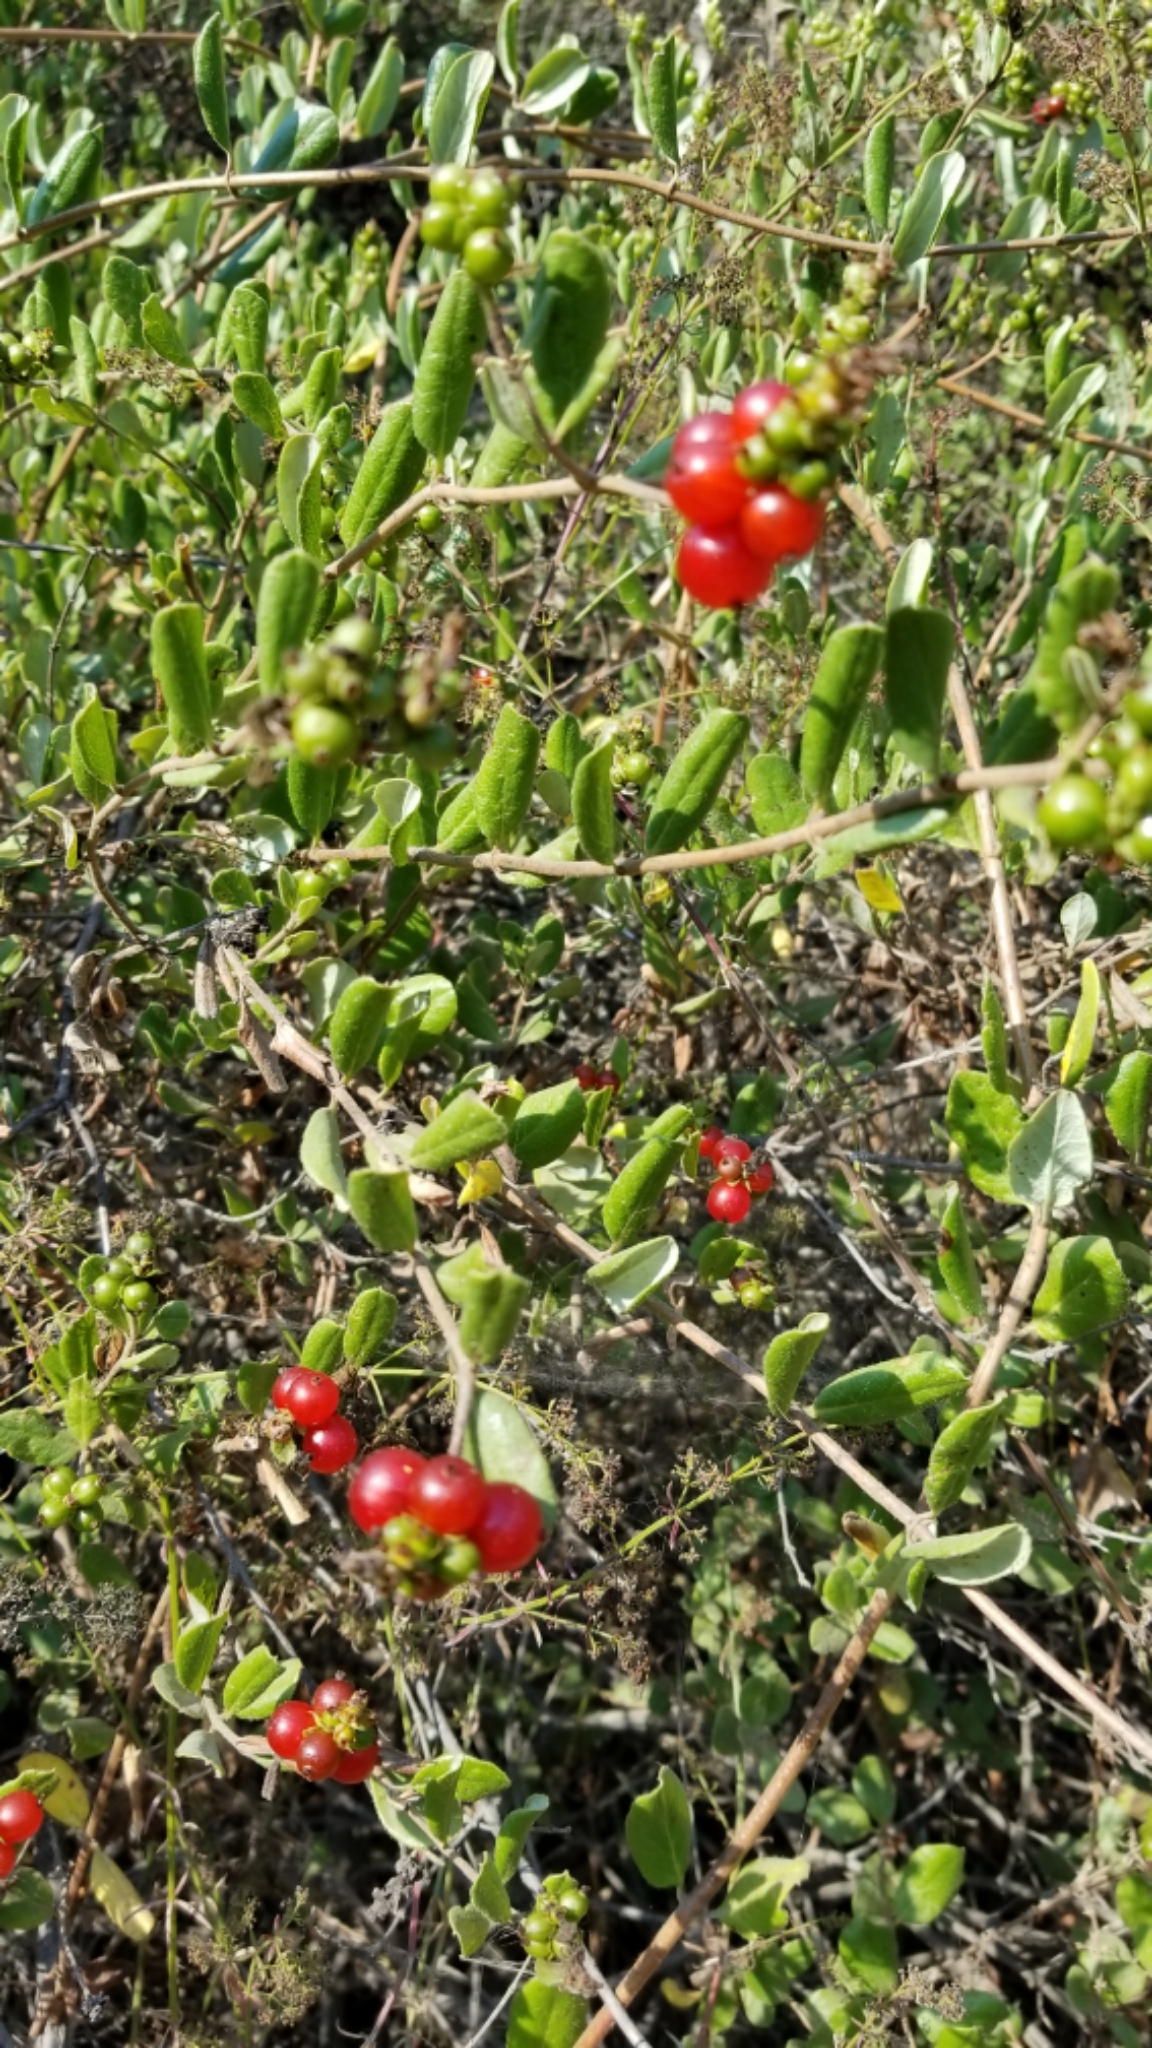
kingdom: Plantae
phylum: Tracheophyta
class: Magnoliopsida
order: Dipsacales
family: Caprifoliaceae
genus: Lonicera
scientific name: Lonicera subspicata
